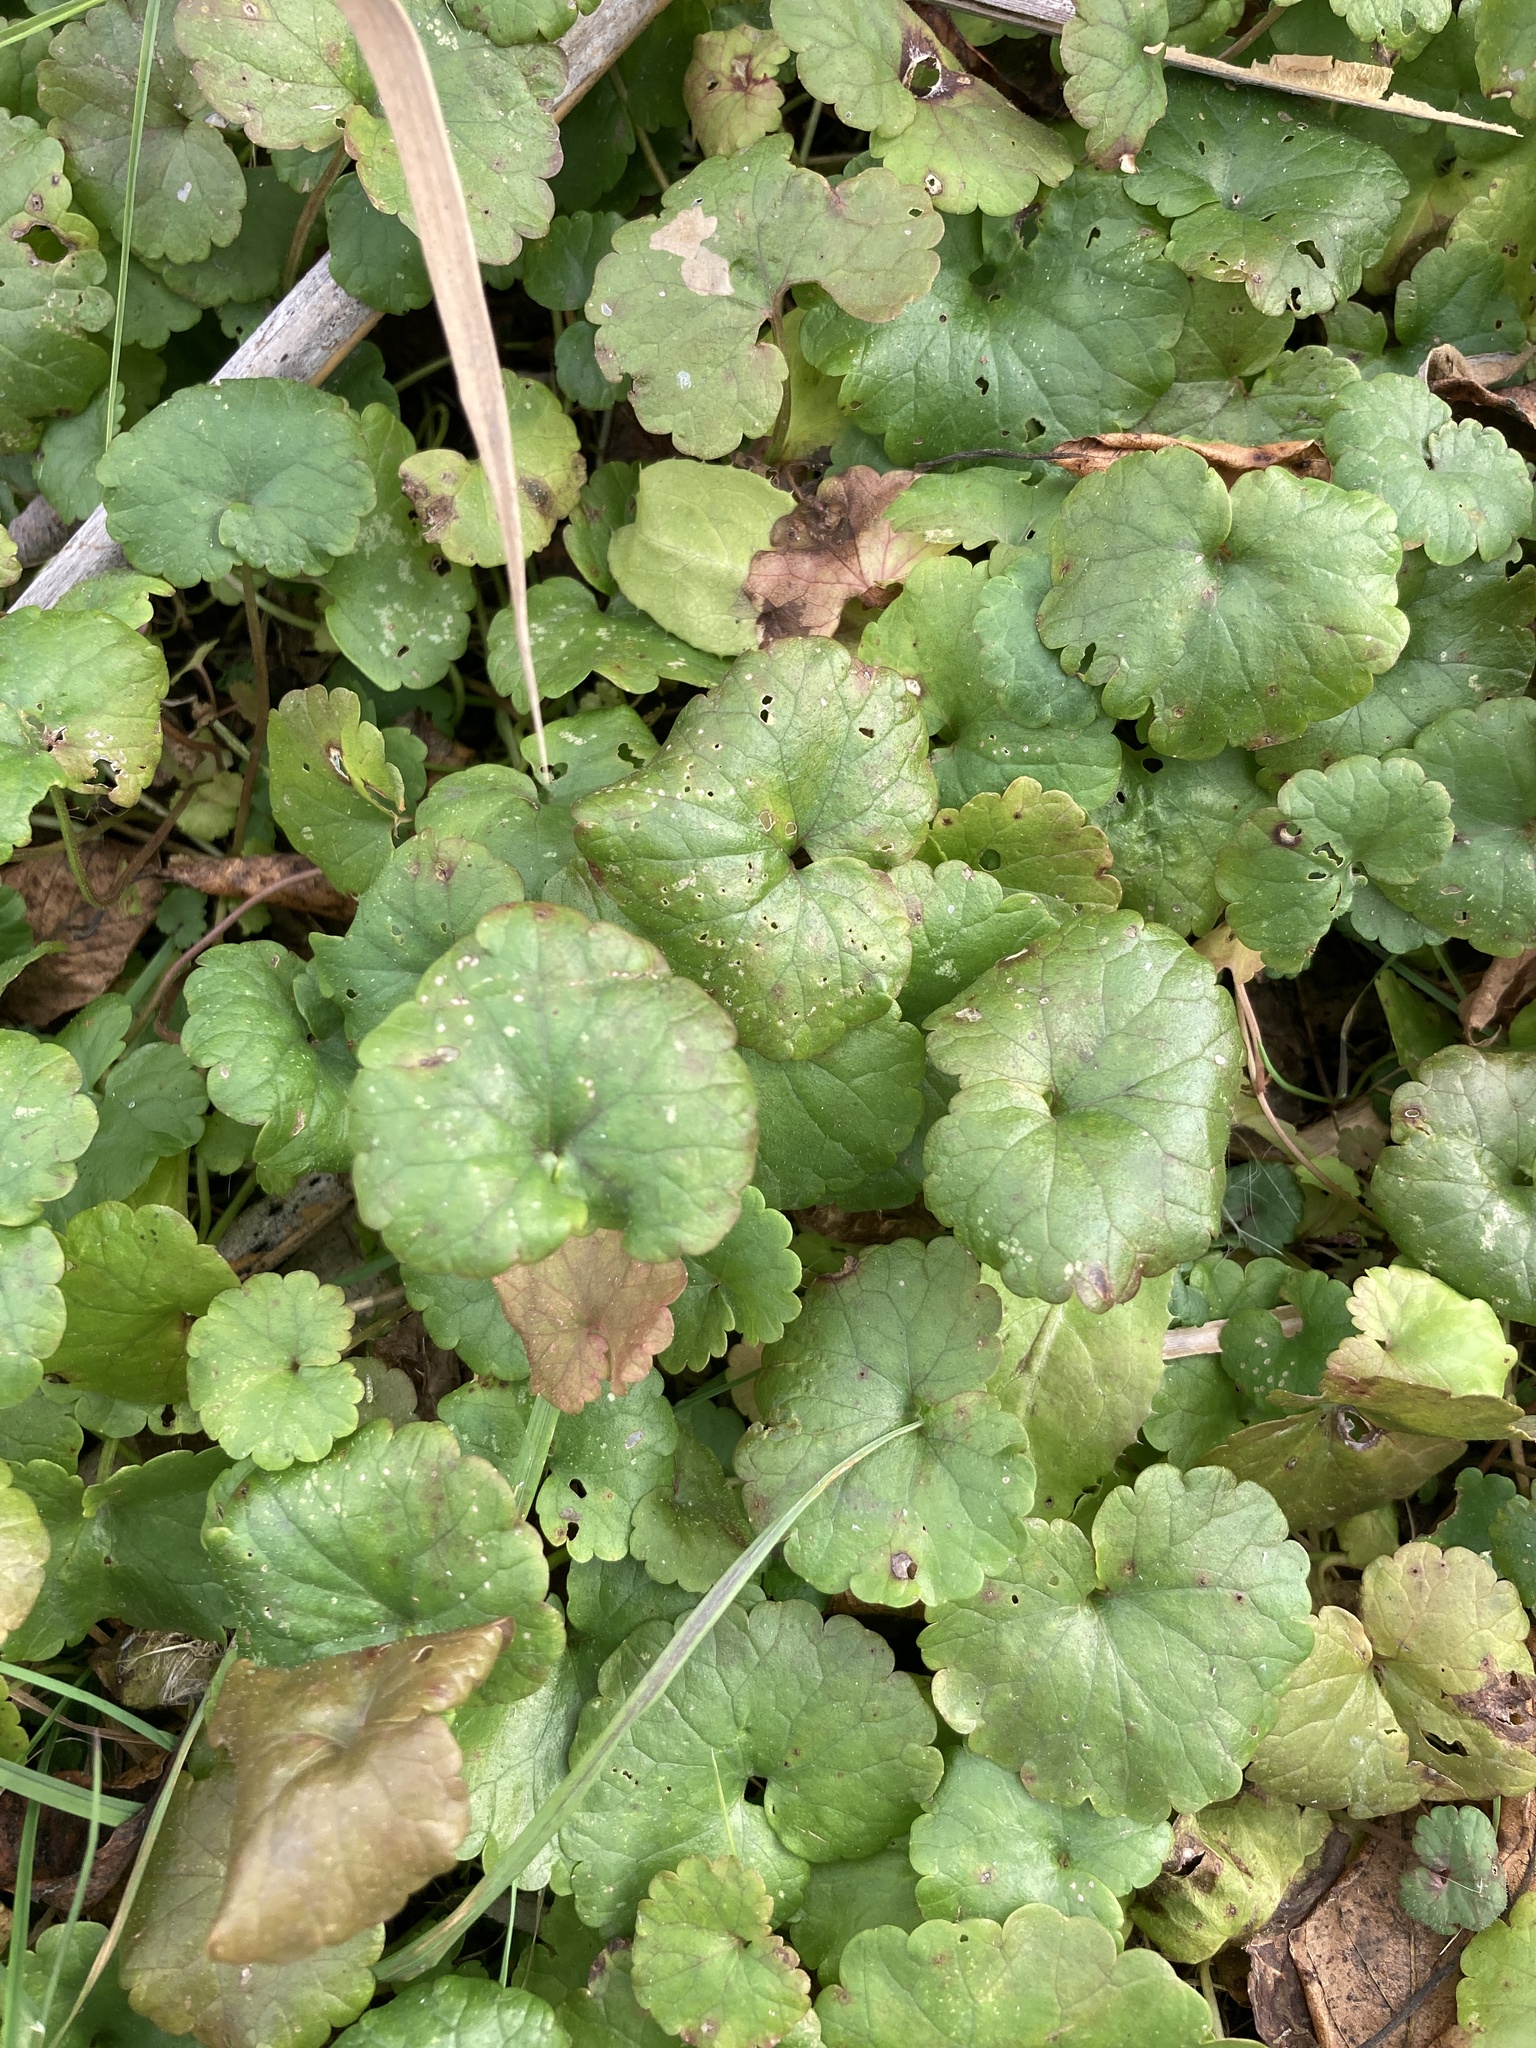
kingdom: Plantae
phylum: Tracheophyta
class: Magnoliopsida
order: Lamiales
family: Lamiaceae
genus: Glechoma
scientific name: Glechoma hederacea
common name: Ground ivy
